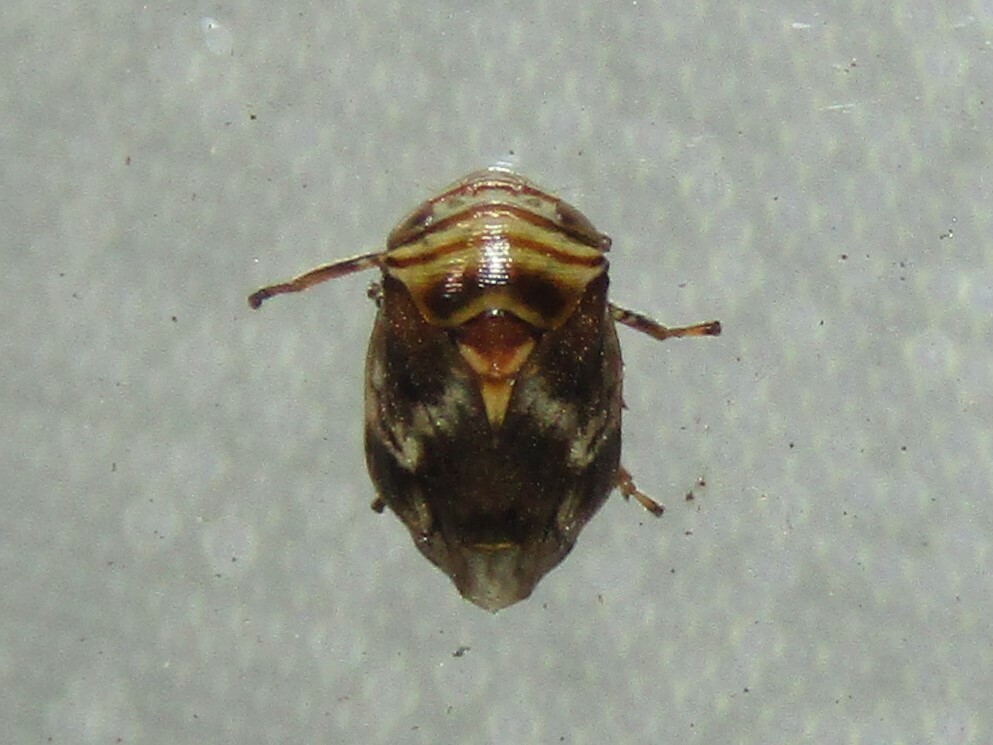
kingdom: Animalia
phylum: Arthropoda
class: Insecta
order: Hemiptera
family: Clastopteridae
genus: Clastoptera
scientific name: Clastoptera obtusa
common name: Alder spittlebug
